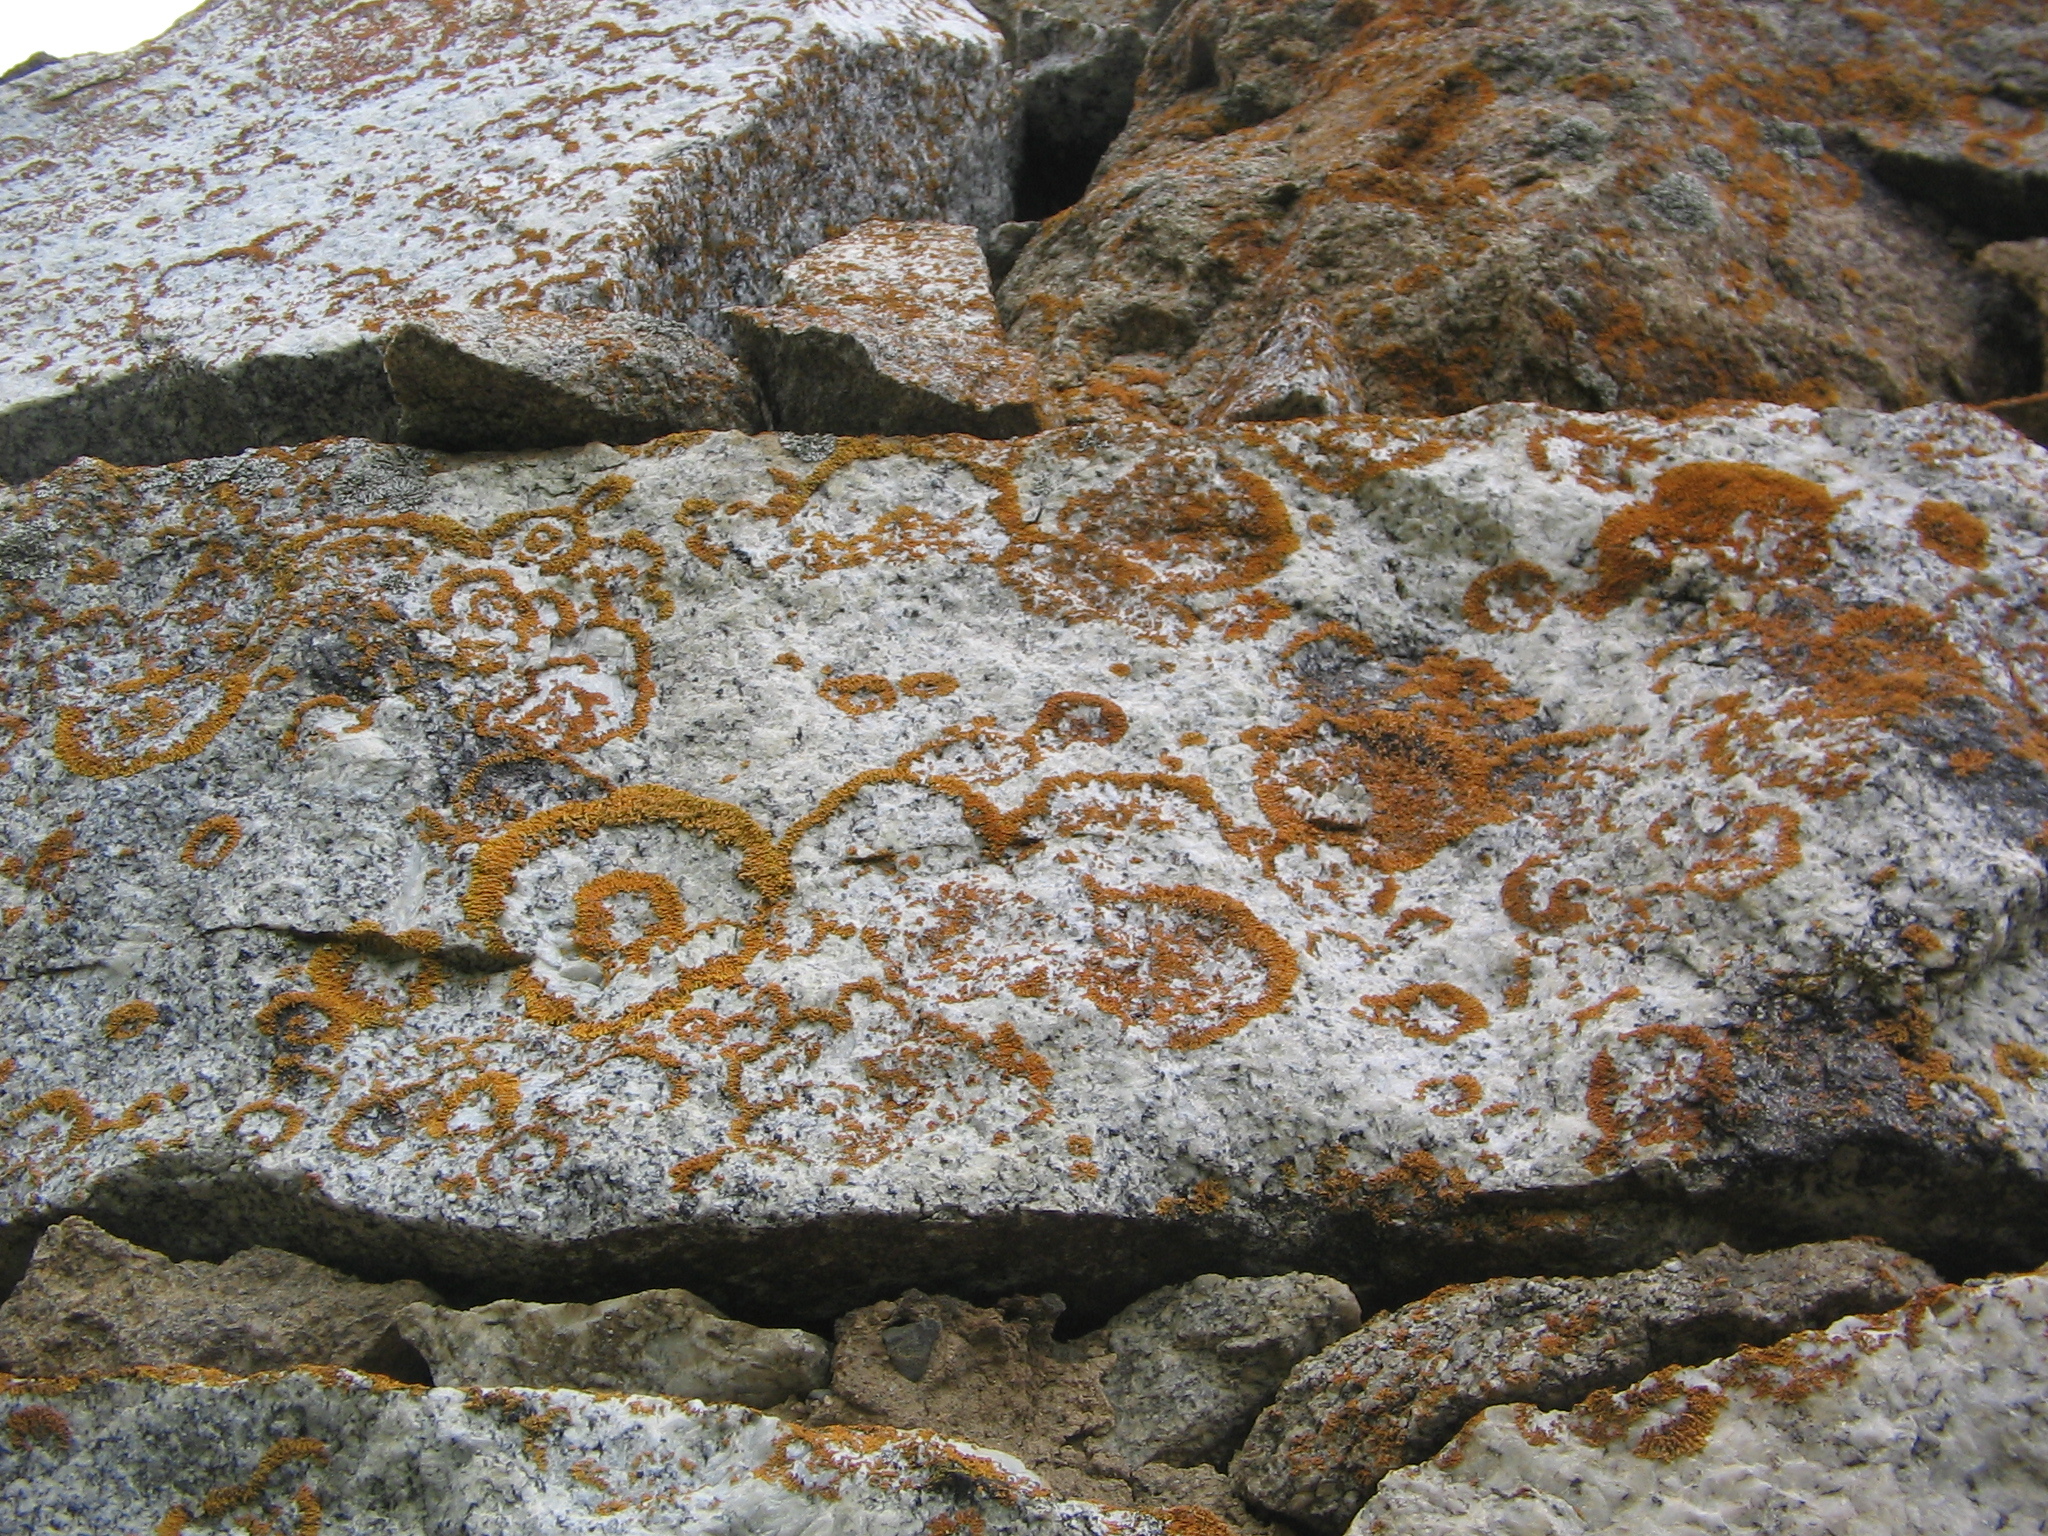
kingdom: Fungi
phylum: Ascomycota
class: Lecanoromycetes
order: Teloschistales
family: Teloschistaceae
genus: Xanthoria
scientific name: Xanthoria elegans
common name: Elegant sunburst lichen
